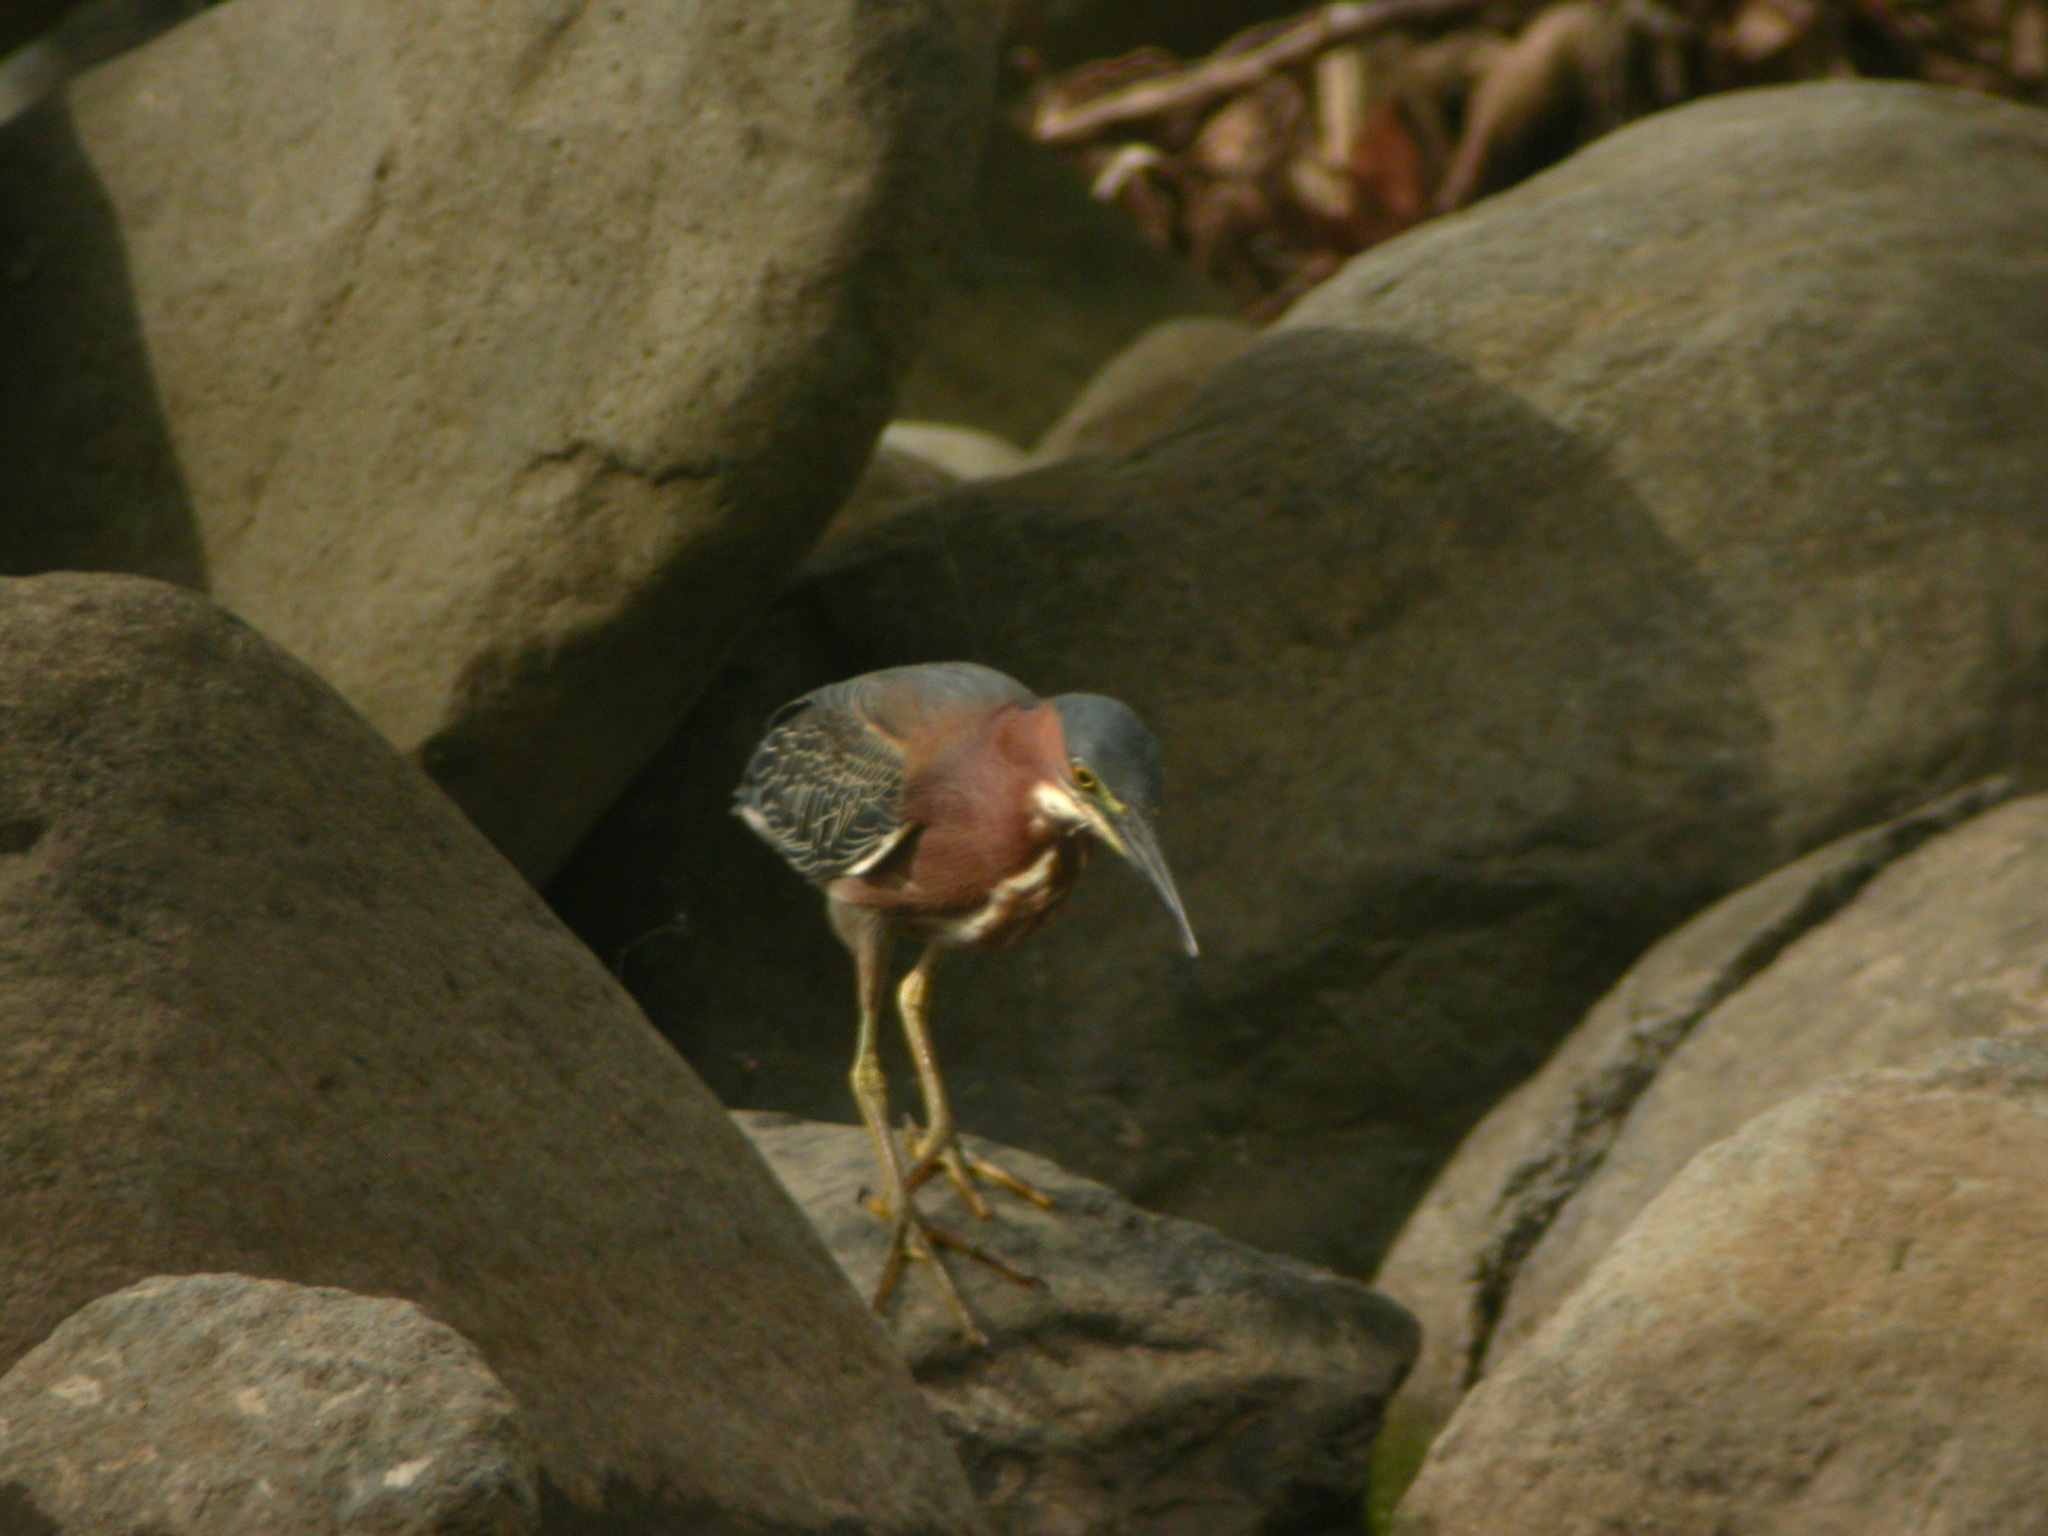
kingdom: Animalia
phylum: Chordata
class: Aves
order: Pelecaniformes
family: Ardeidae
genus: Butorides
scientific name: Butorides virescens
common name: Green heron
